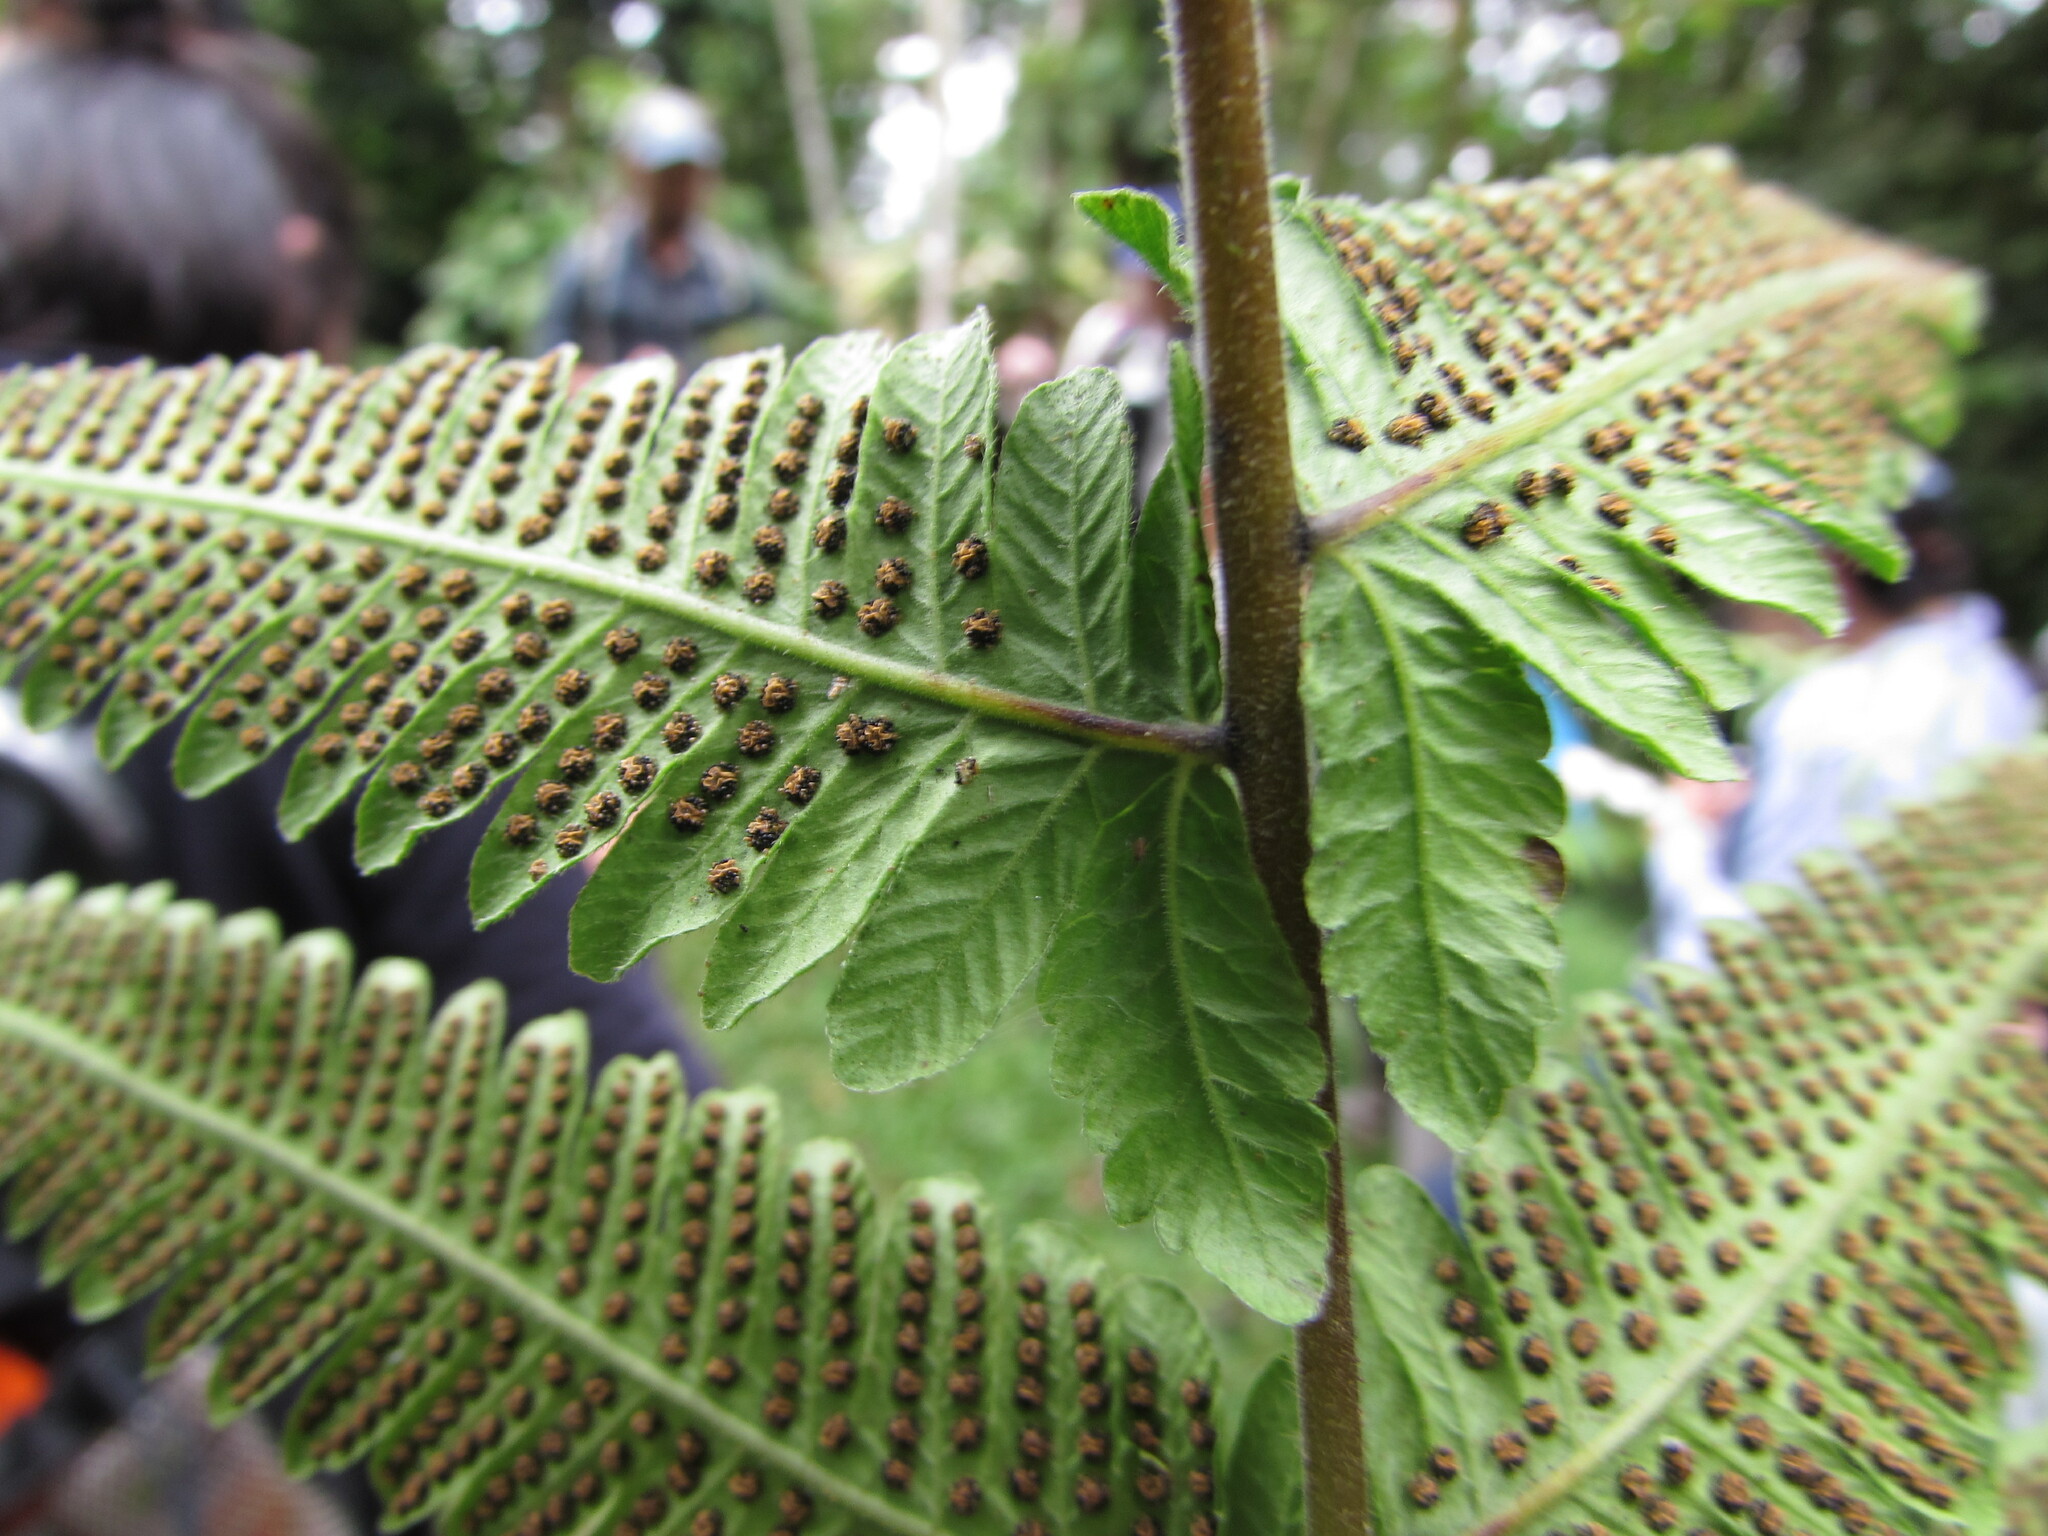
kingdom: Plantae
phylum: Tracheophyta
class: Polypodiopsida
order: Polypodiales
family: Thelypteridaceae
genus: Christella
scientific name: Christella dentata
